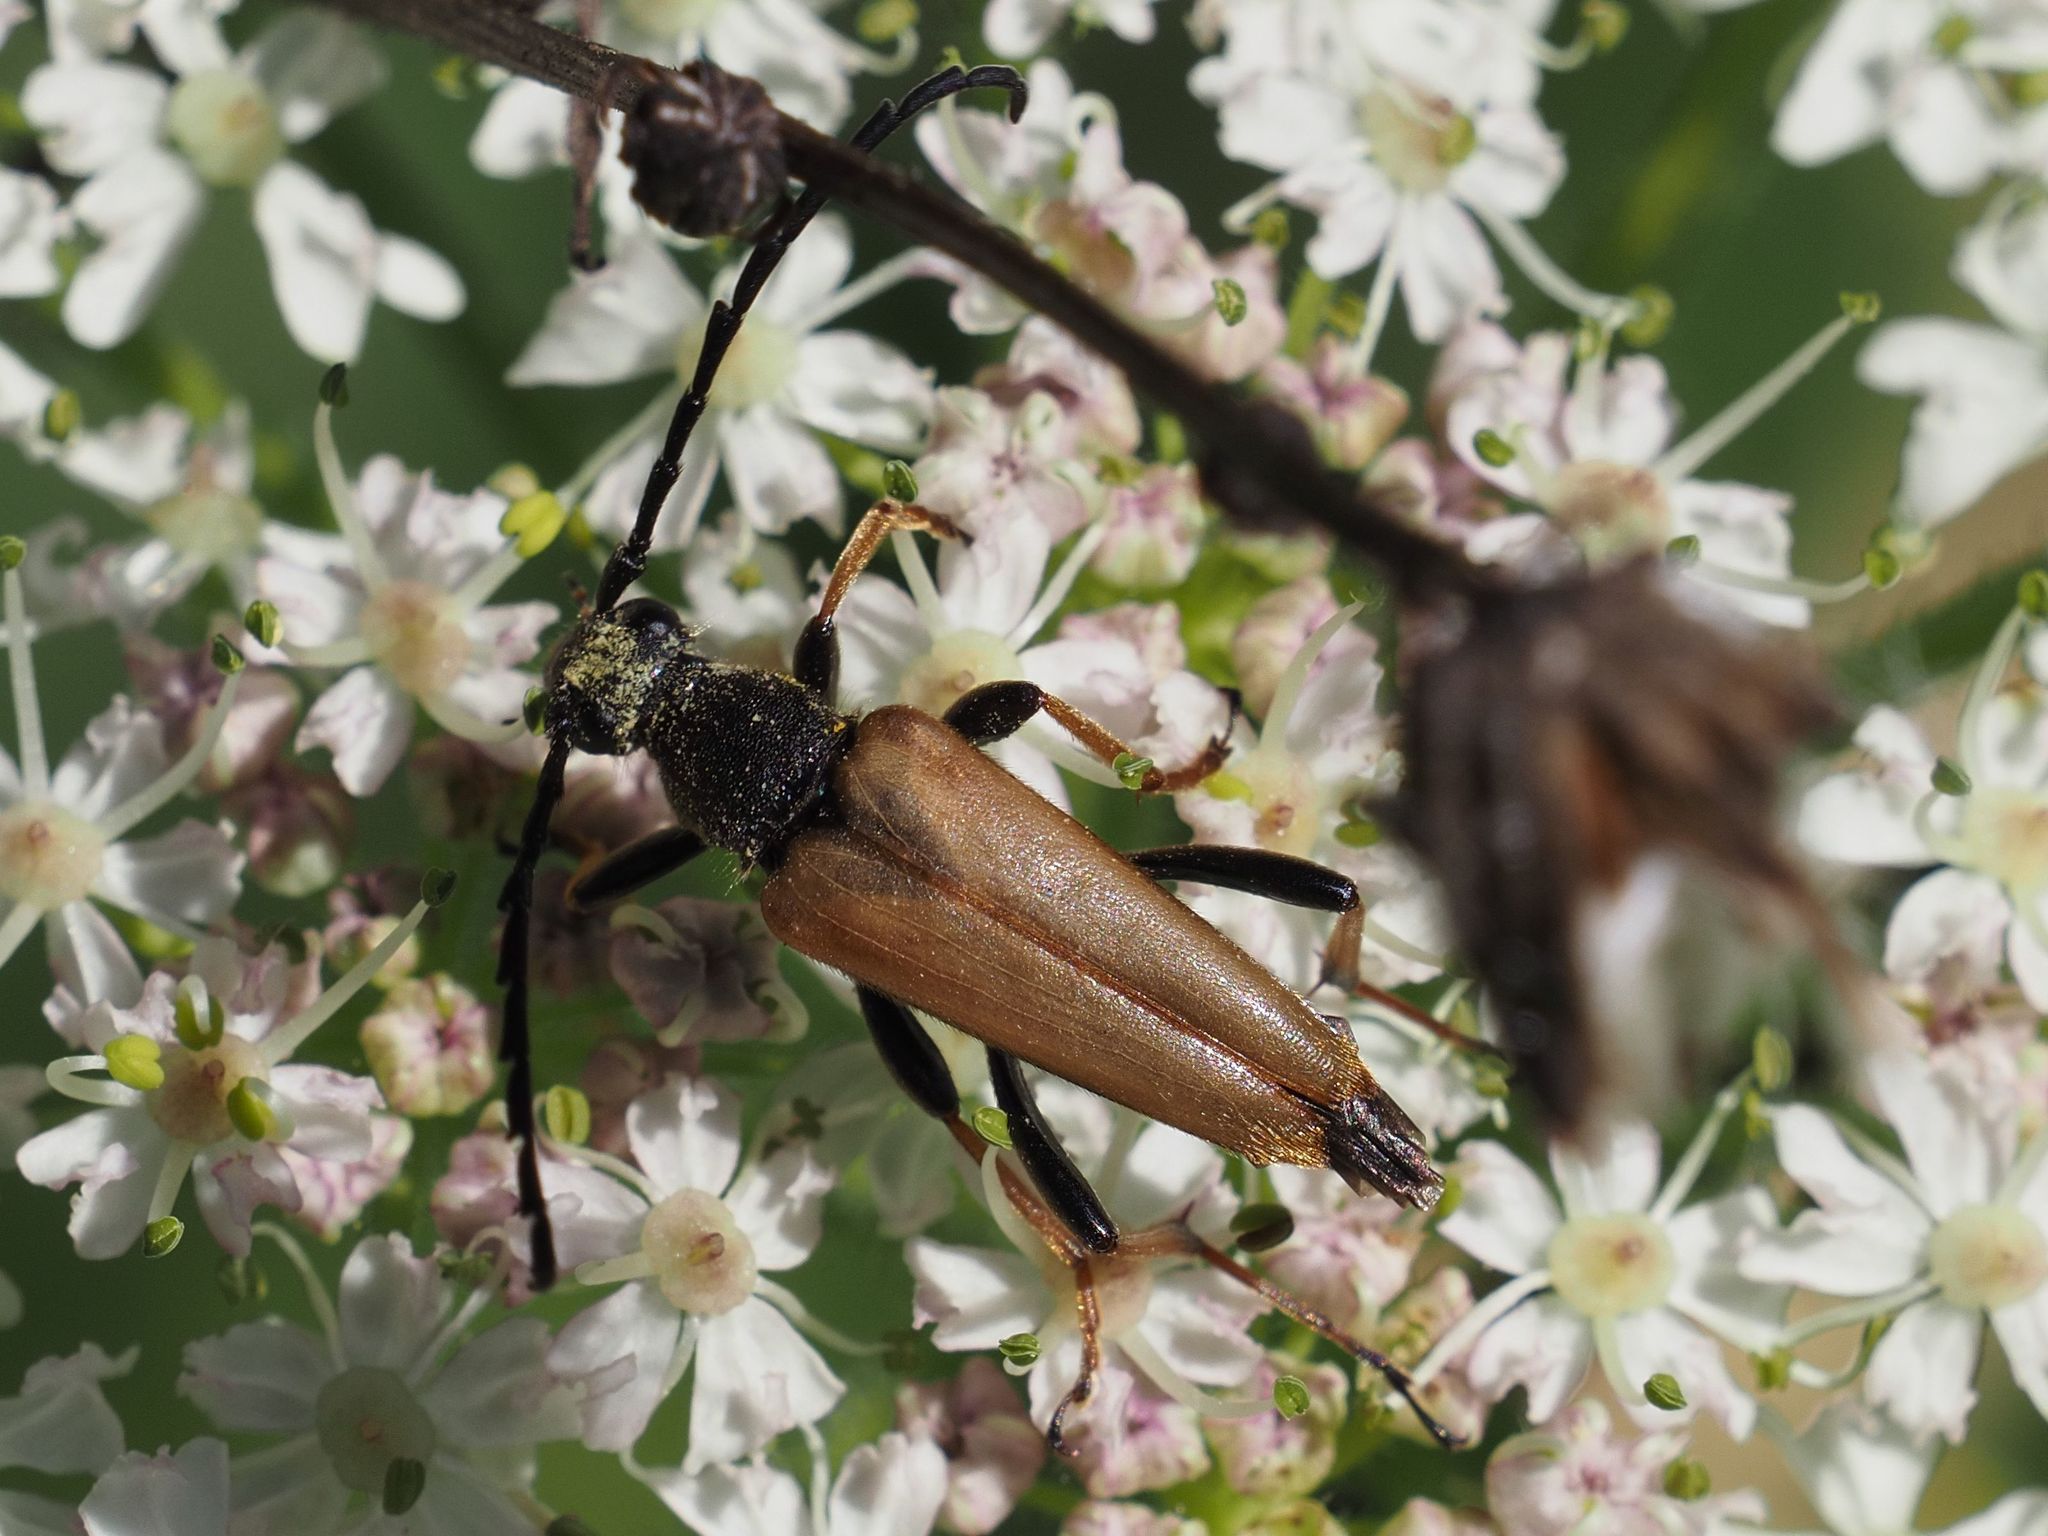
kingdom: Animalia
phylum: Arthropoda
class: Insecta
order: Coleoptera
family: Cerambycidae
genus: Stictoleptura
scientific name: Stictoleptura rubra
